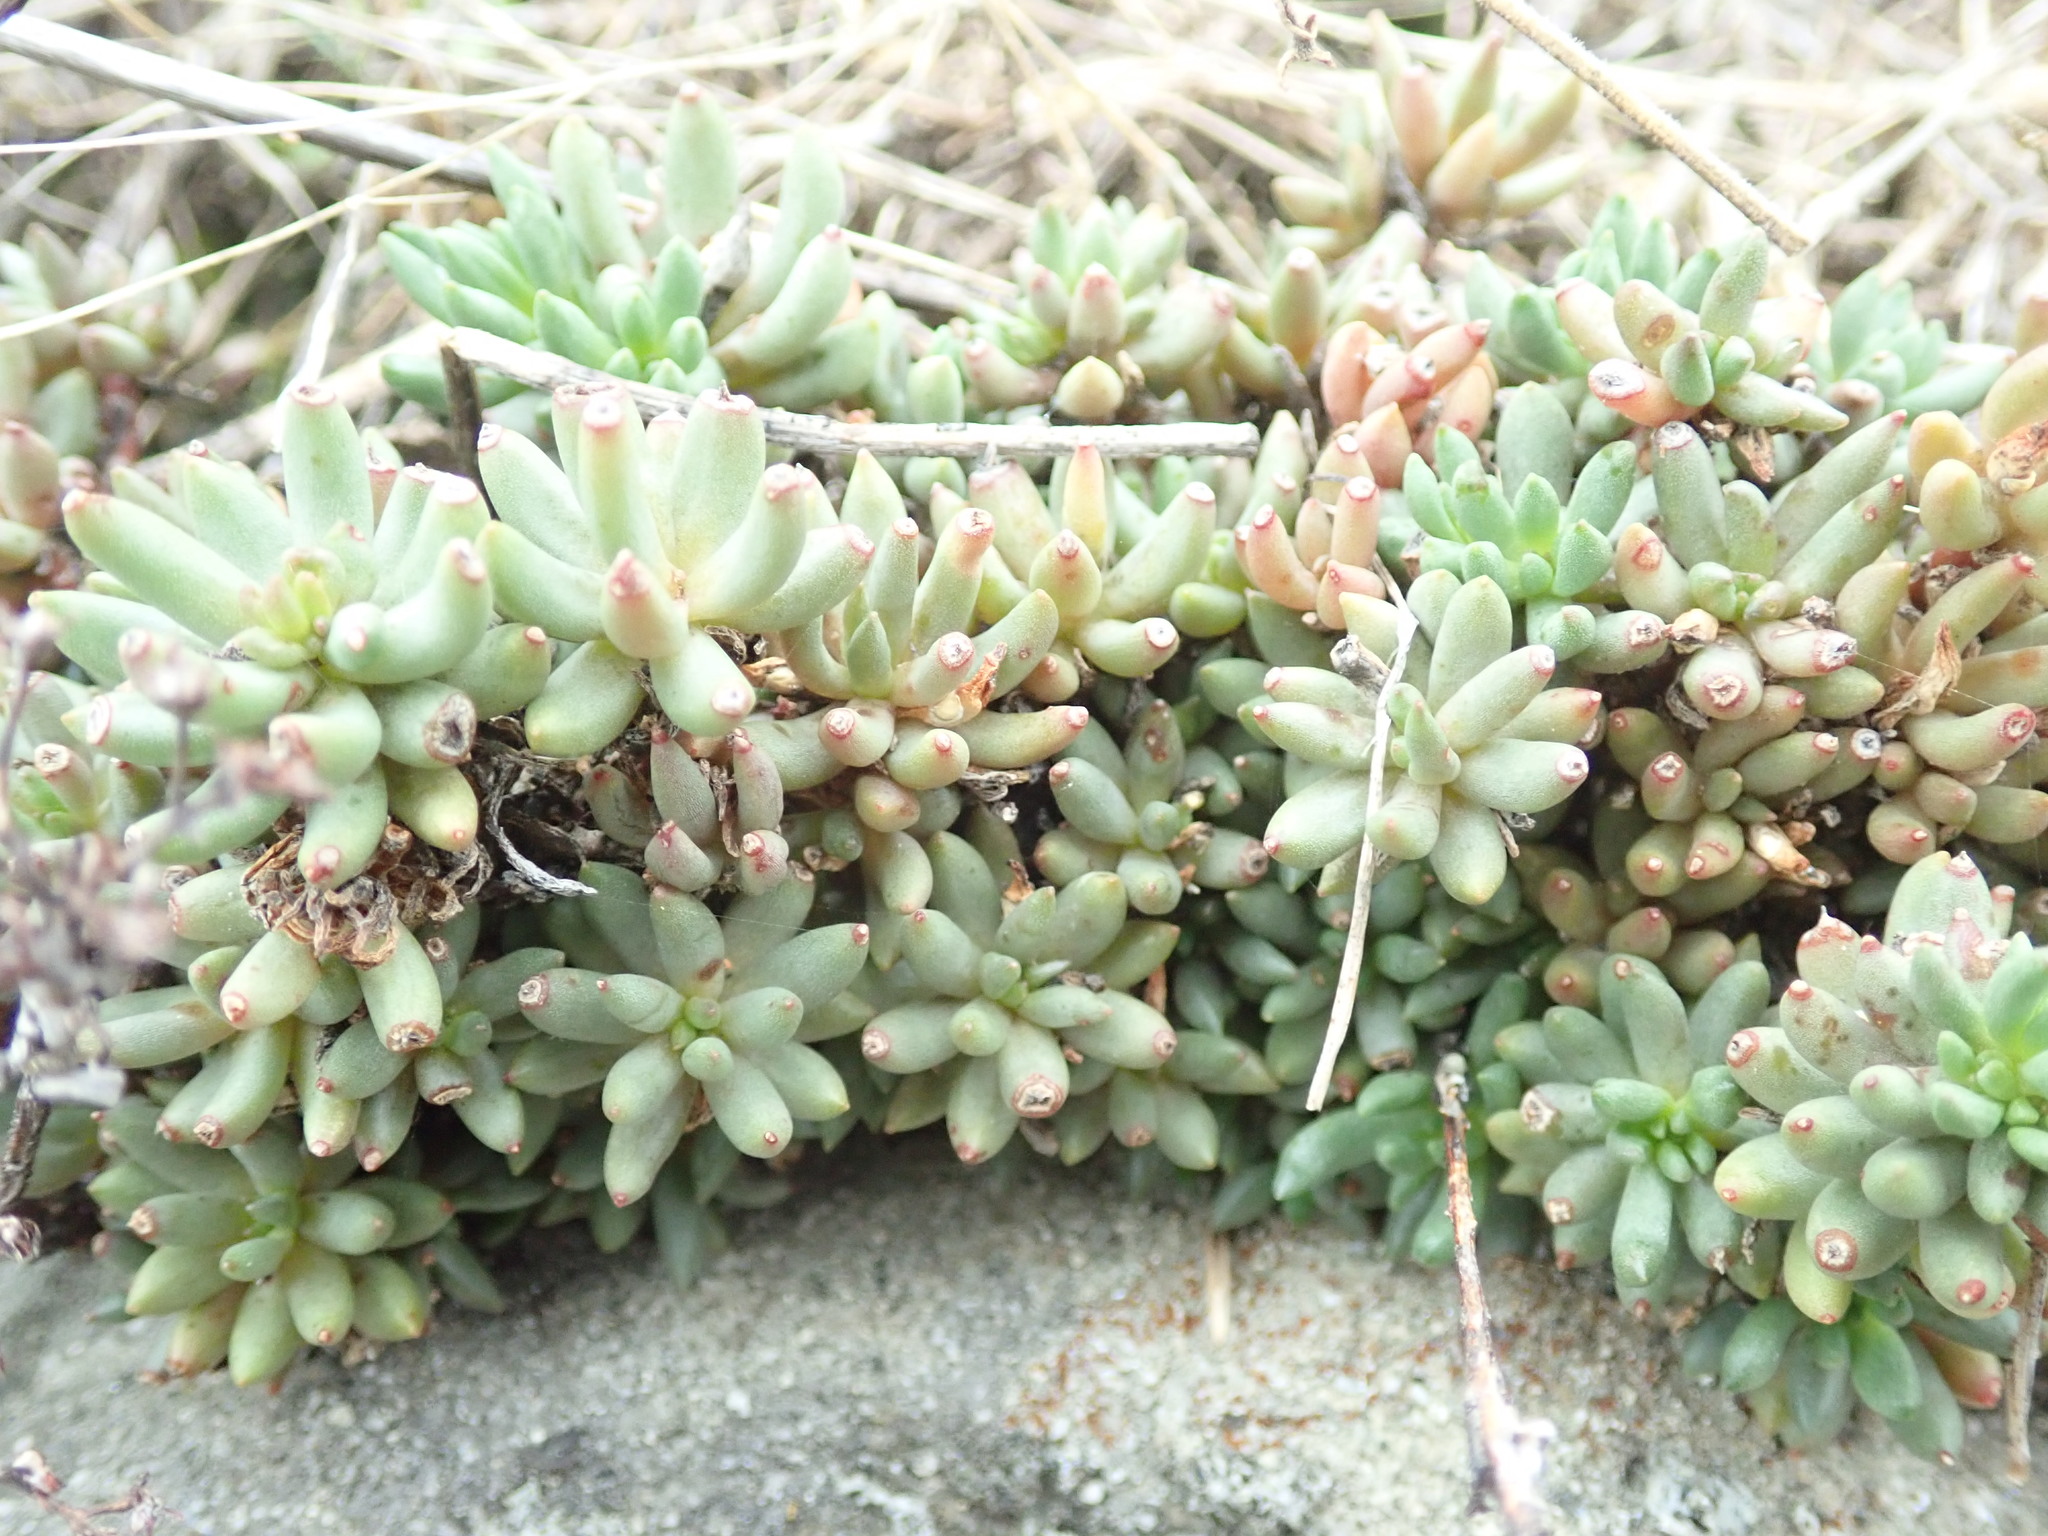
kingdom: Plantae
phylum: Tracheophyta
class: Magnoliopsida
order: Saxifragales
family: Crassulaceae
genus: Sedum
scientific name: Sedum lanceolatum
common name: Common stonecrop
